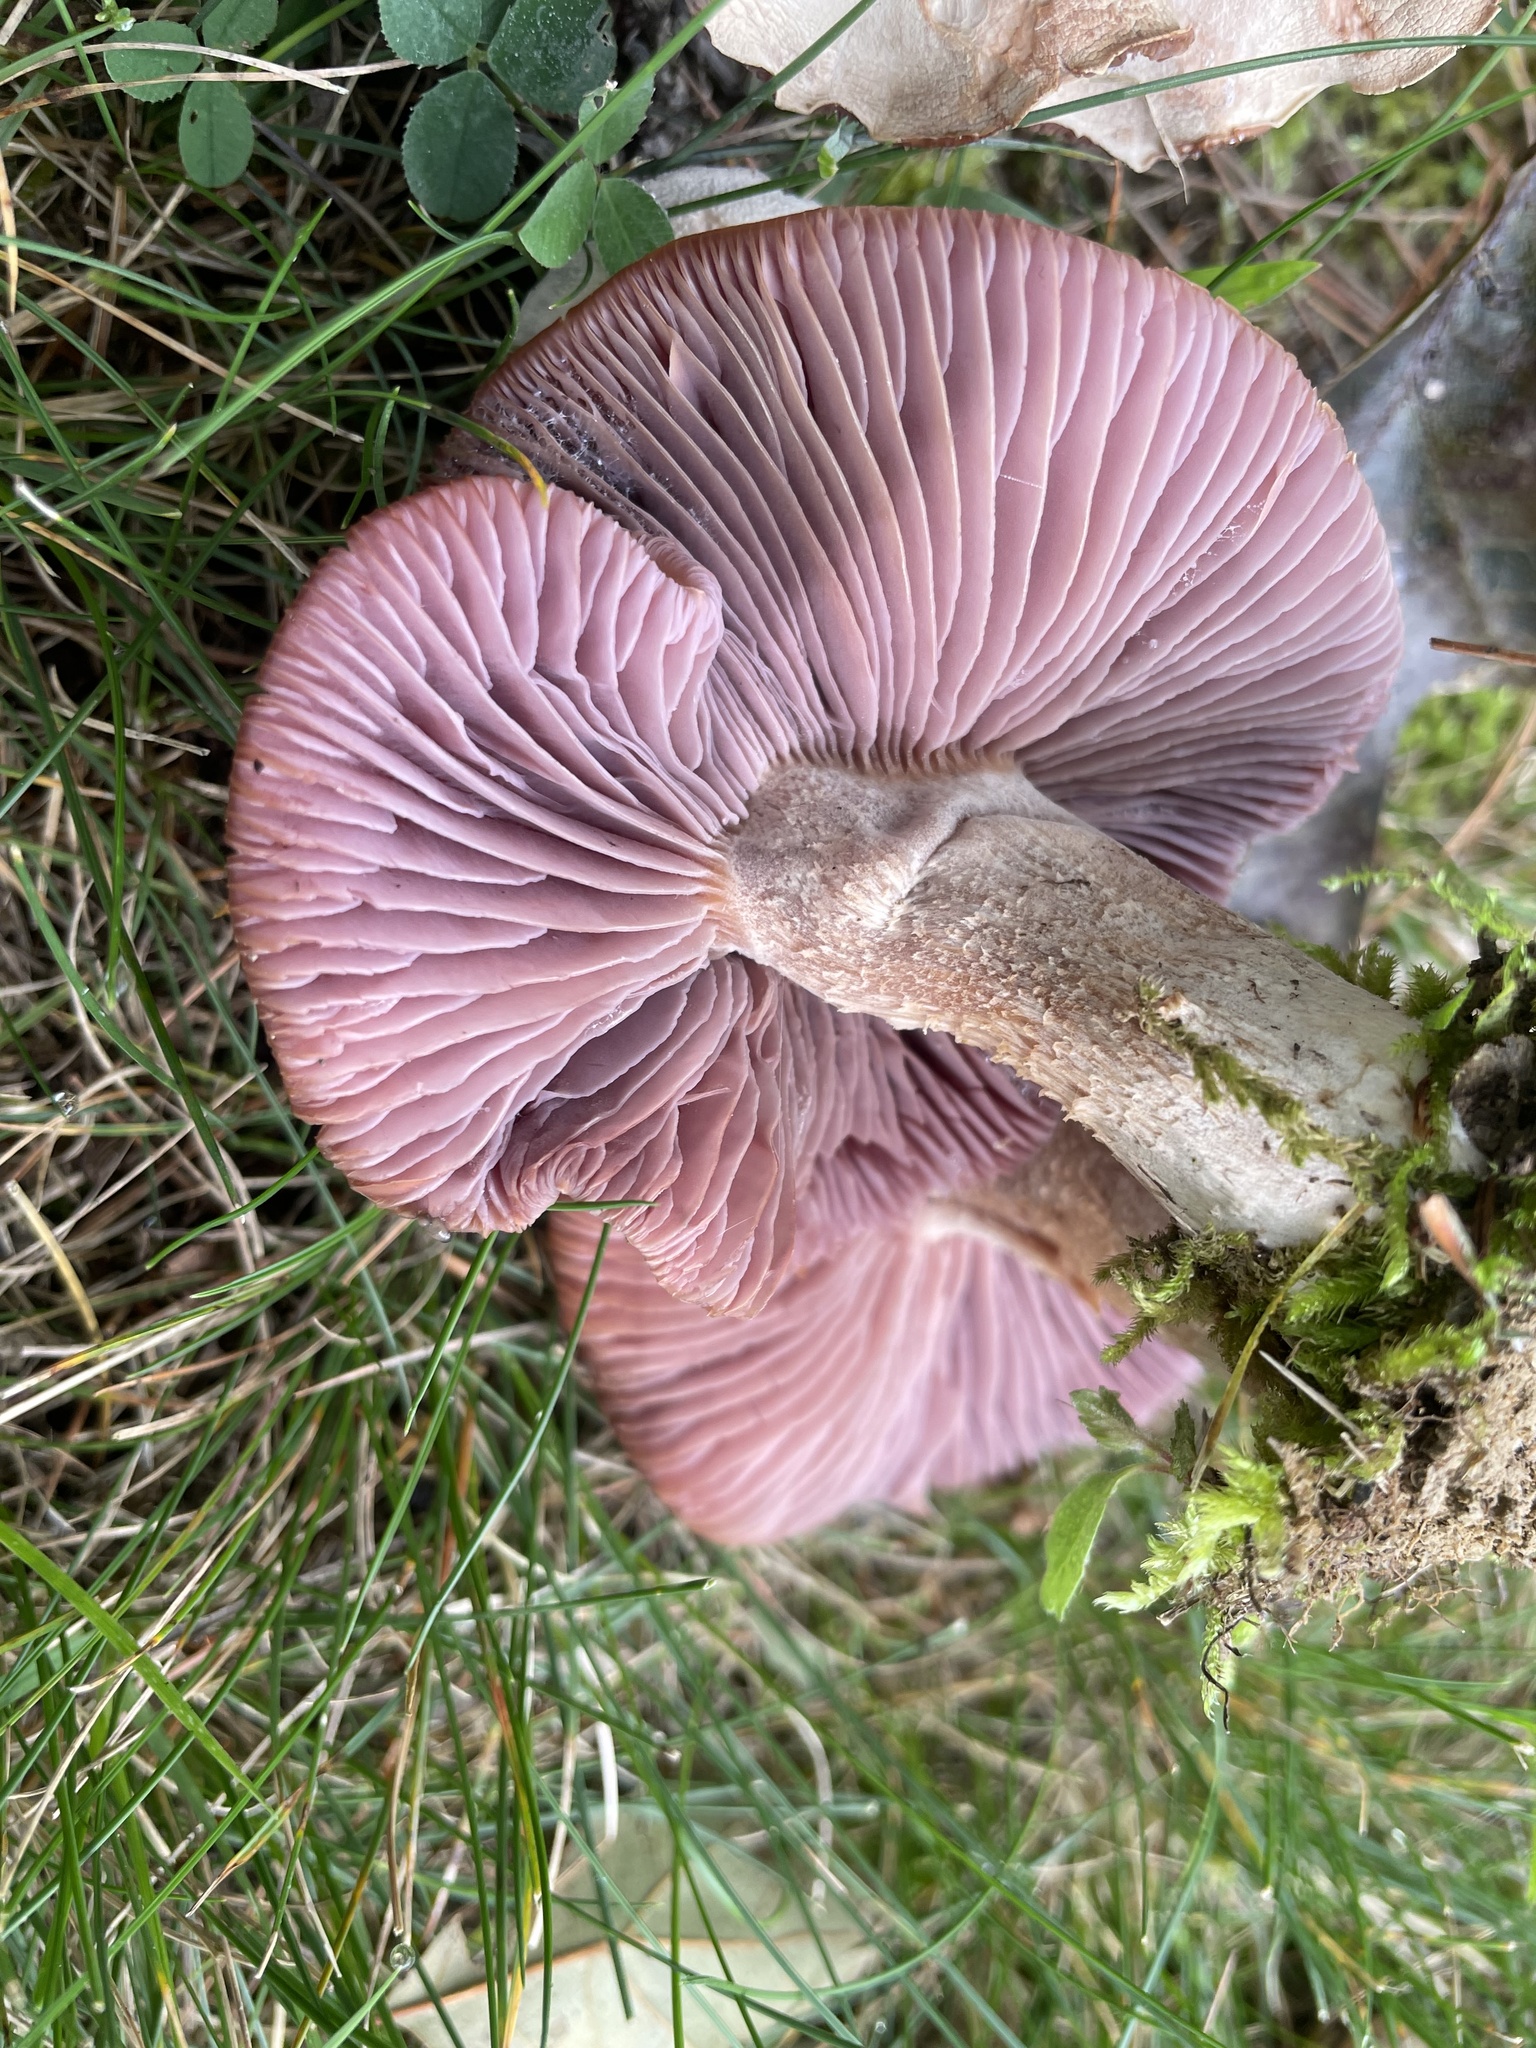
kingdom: Fungi
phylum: Basidiomycota
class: Agaricomycetes
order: Agaricales
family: Hydnangiaceae
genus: Laccaria
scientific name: Laccaria ochropurpurea
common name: Purple laccaria
